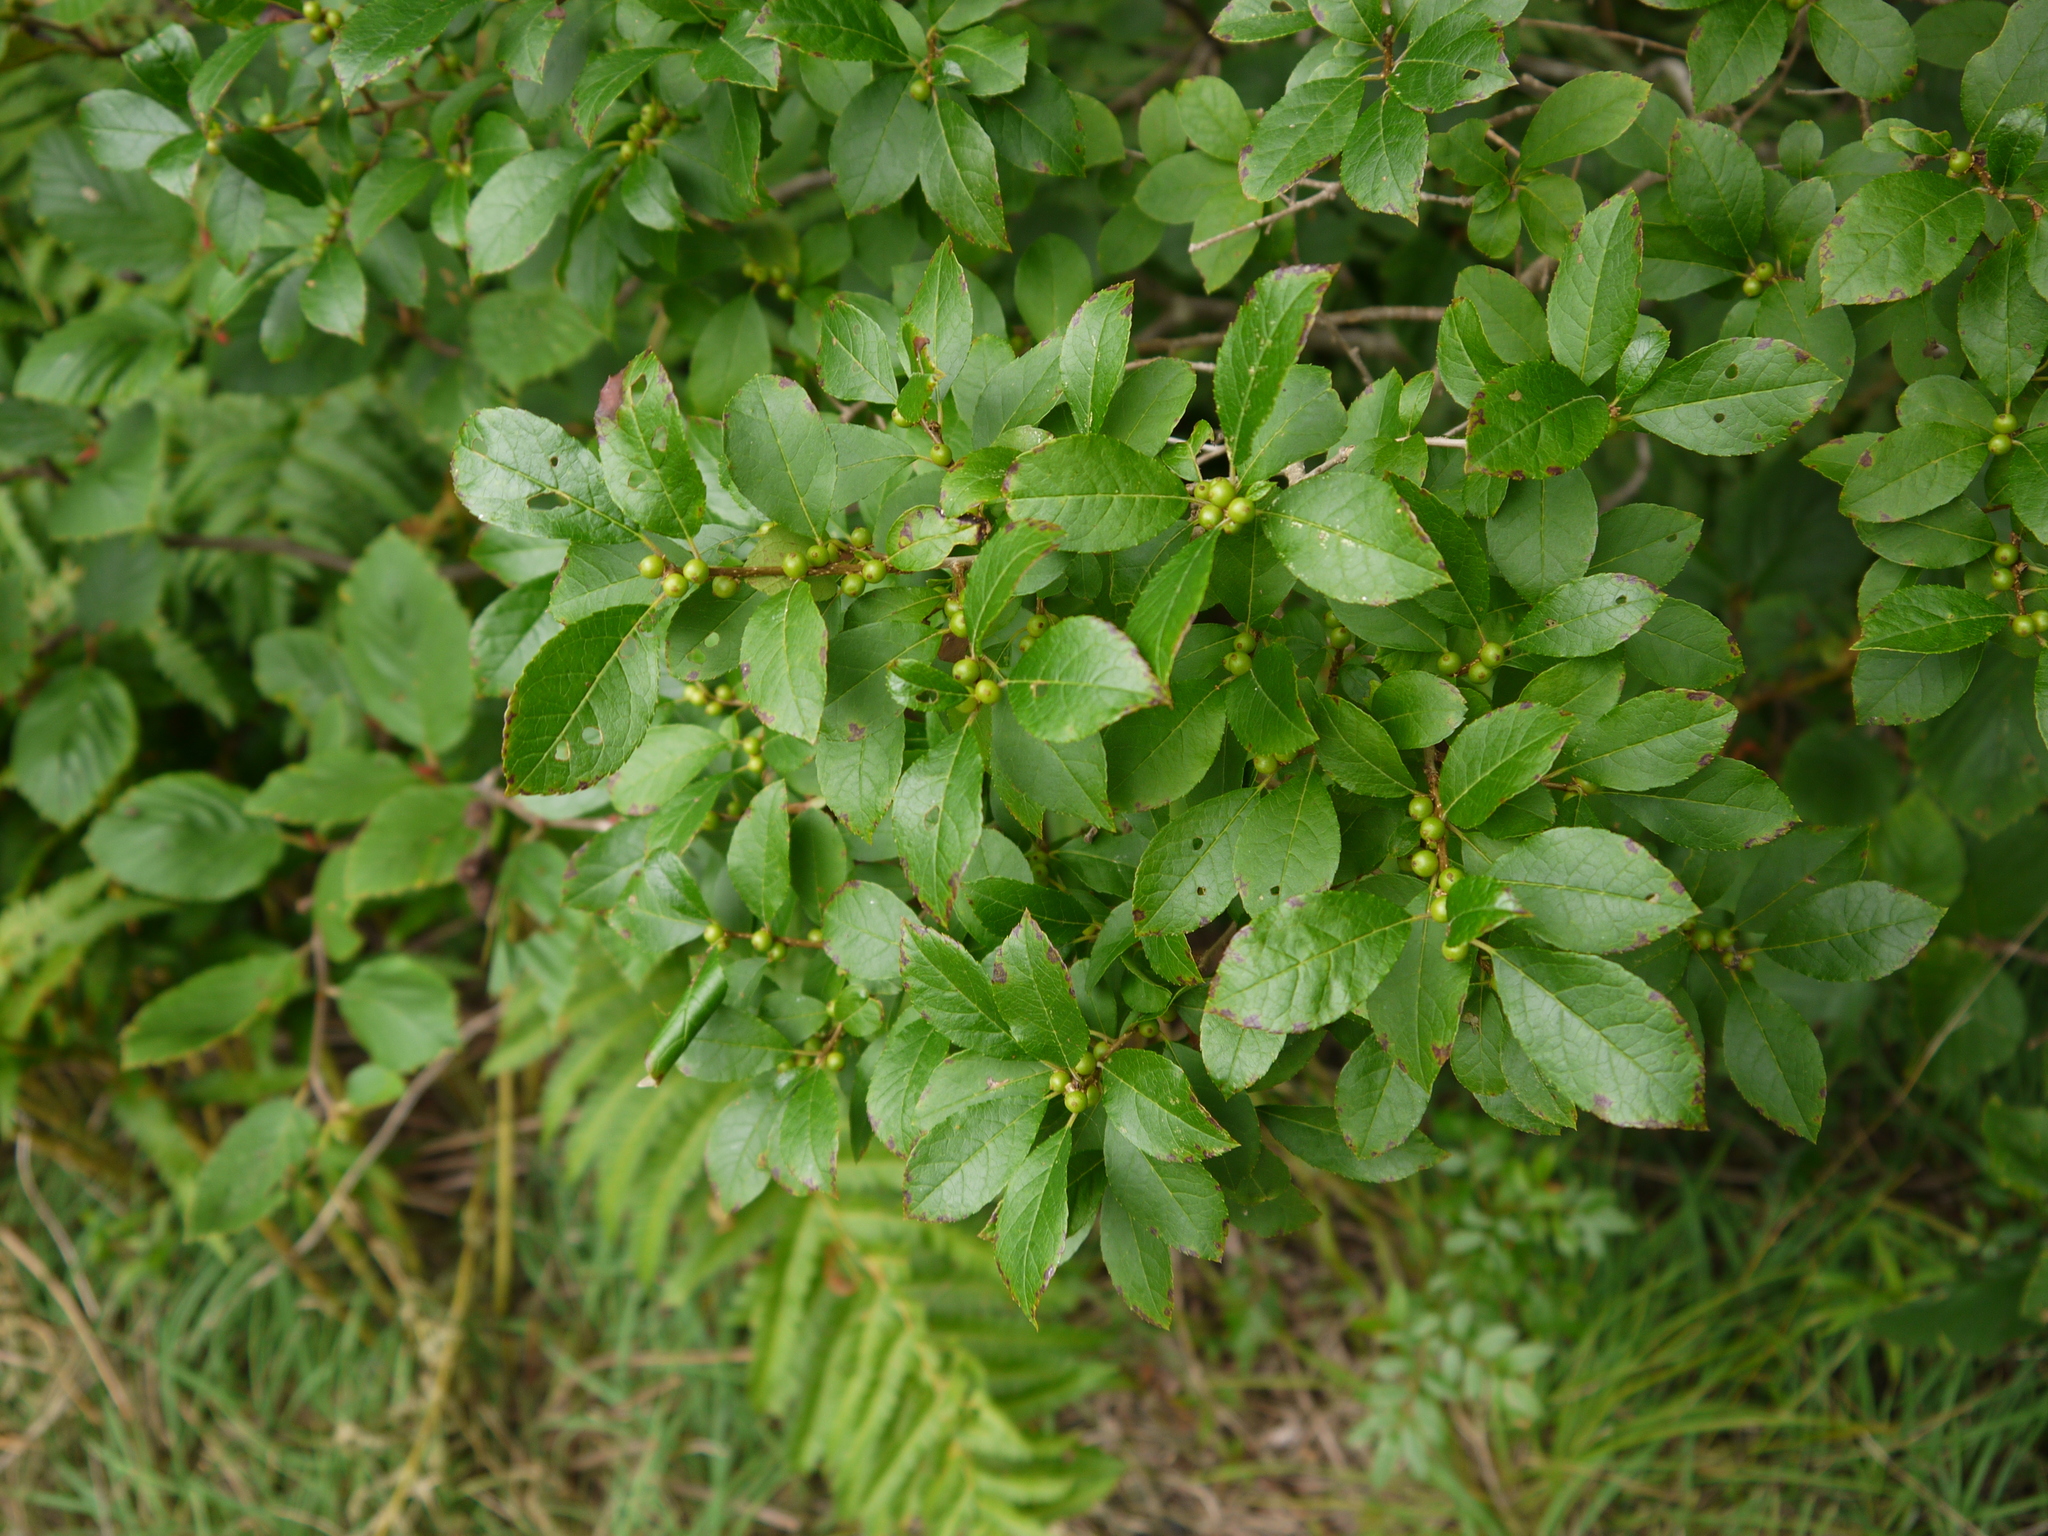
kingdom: Plantae
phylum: Tracheophyta
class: Magnoliopsida
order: Aquifoliales
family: Aquifoliaceae
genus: Ilex
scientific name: Ilex verticillata
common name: Virginia winterberry
